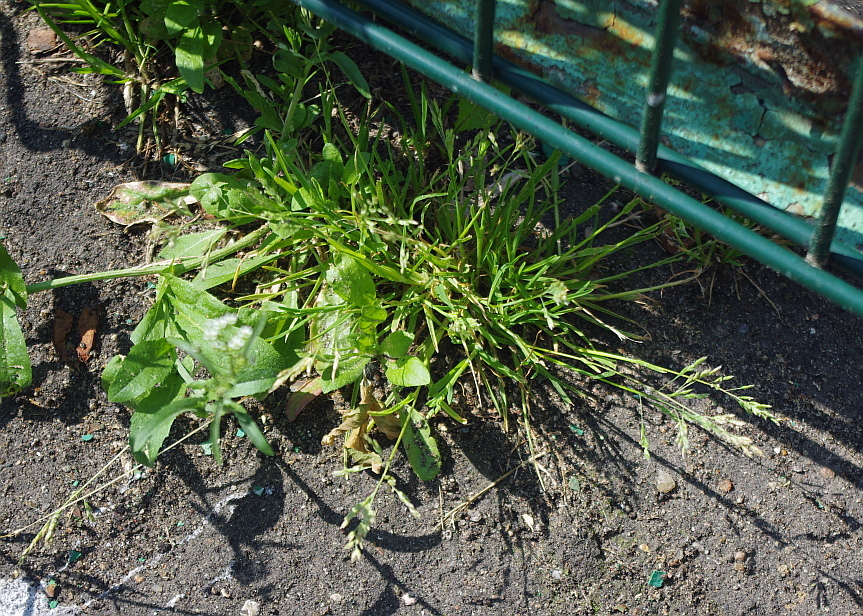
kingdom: Plantae
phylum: Tracheophyta
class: Liliopsida
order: Poales
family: Poaceae
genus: Poa
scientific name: Poa annua
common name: Annual bluegrass
